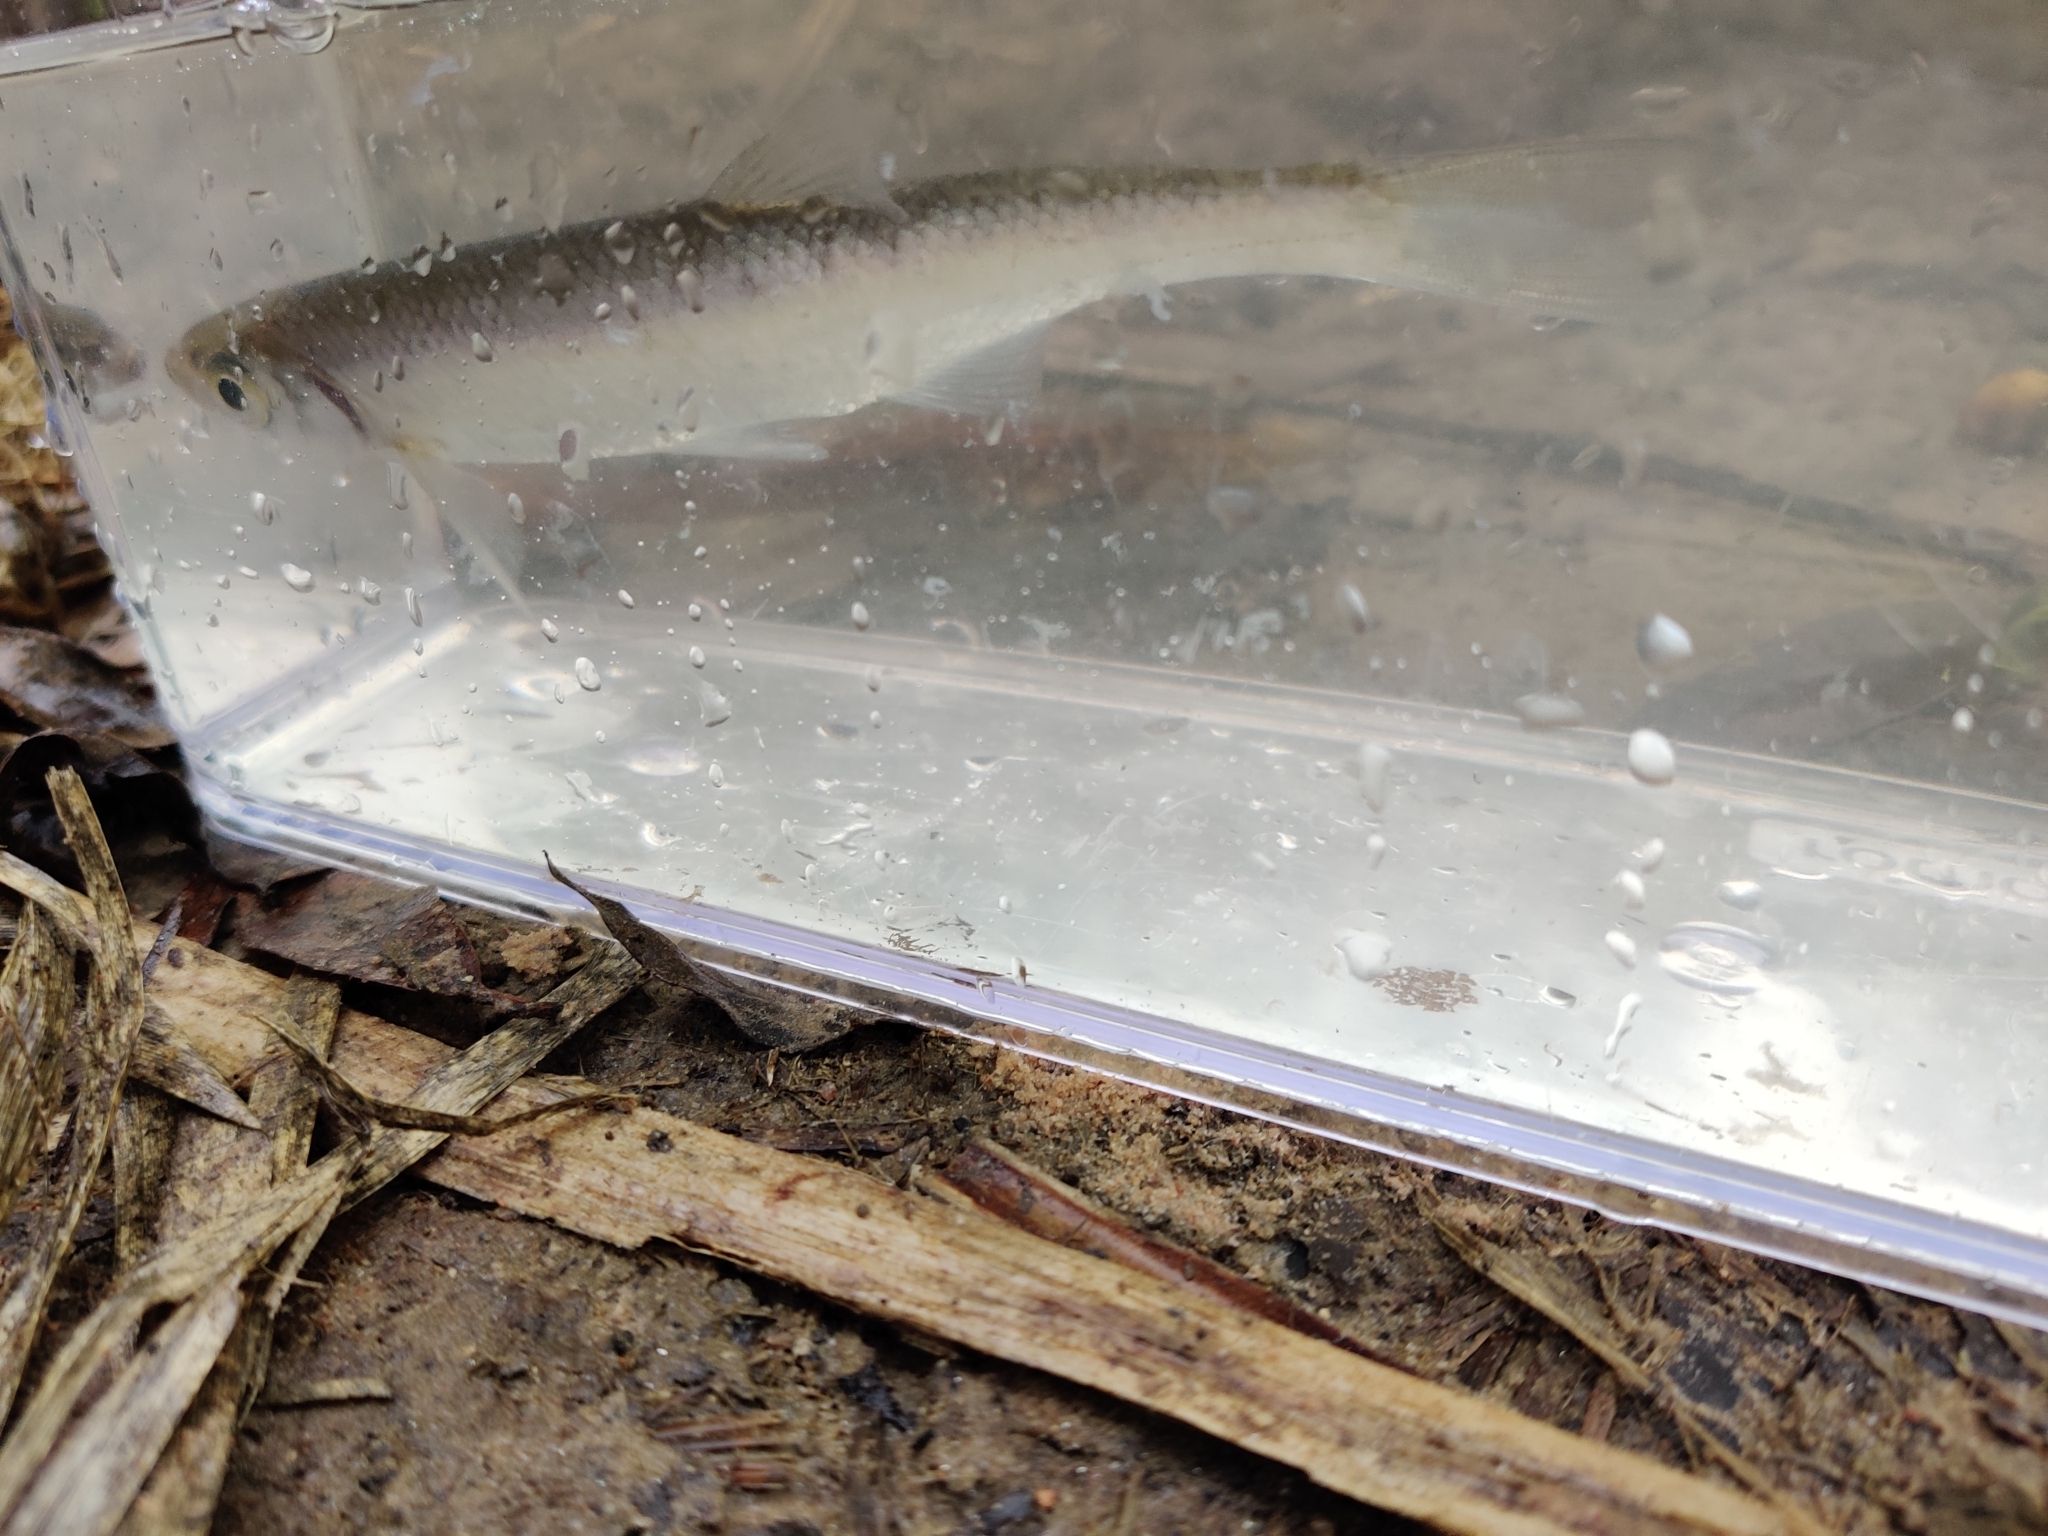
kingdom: Animalia
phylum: Chordata
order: Cypriniformes
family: Cyprinidae
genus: Alburnus
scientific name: Alburnus alburnus
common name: Bleak
